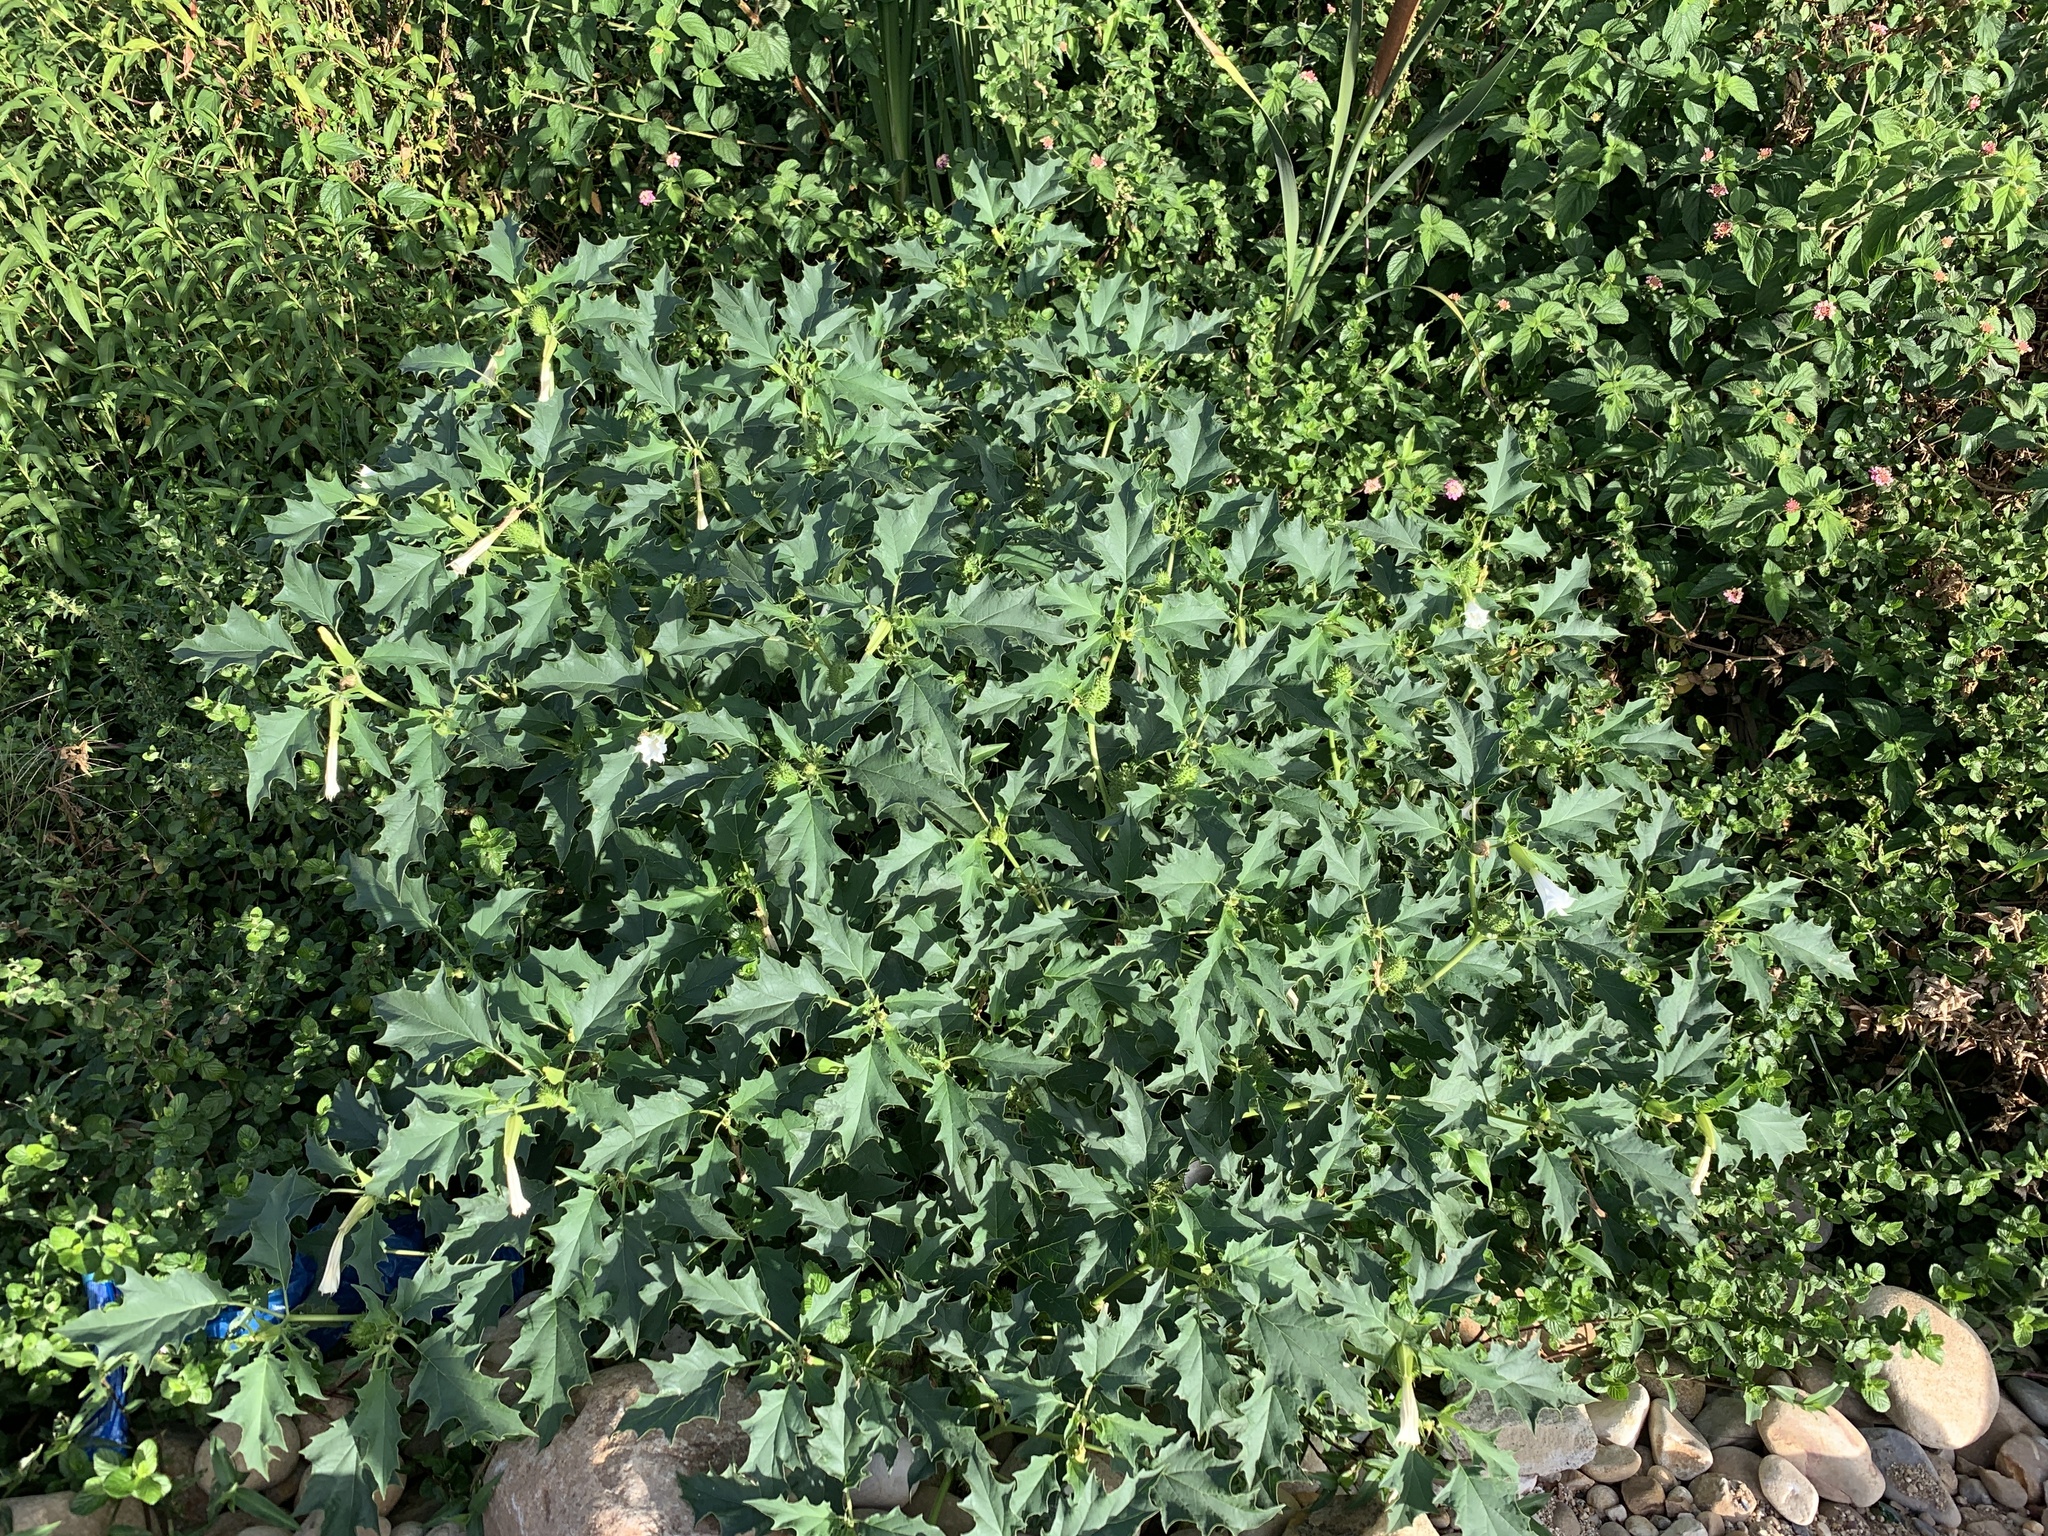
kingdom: Plantae
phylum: Tracheophyta
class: Magnoliopsida
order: Solanales
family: Solanaceae
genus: Datura
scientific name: Datura stramonium
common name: Thorn-apple
